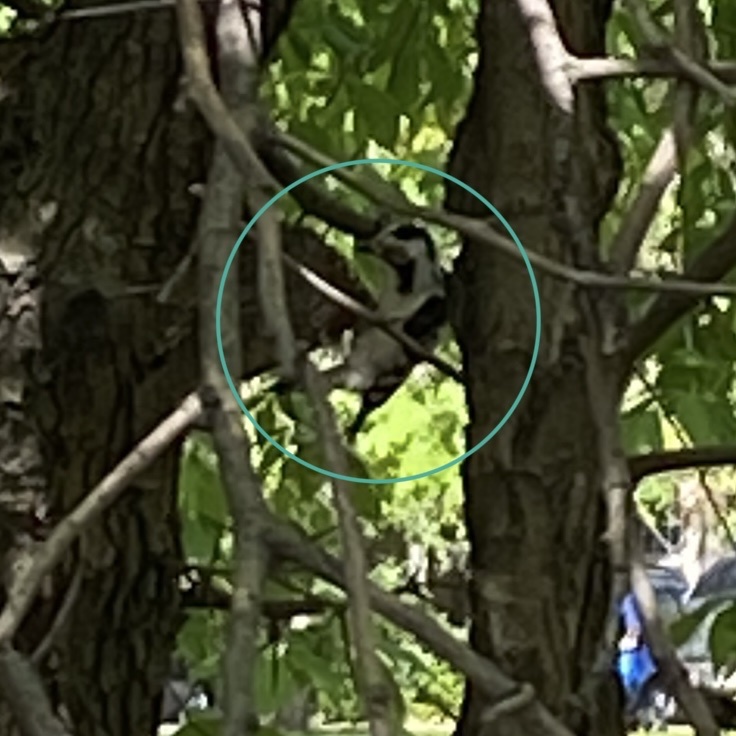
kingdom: Animalia
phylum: Chordata
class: Aves
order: Piciformes
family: Picidae
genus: Dryobates
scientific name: Dryobates minor
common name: Lesser spotted woodpecker
